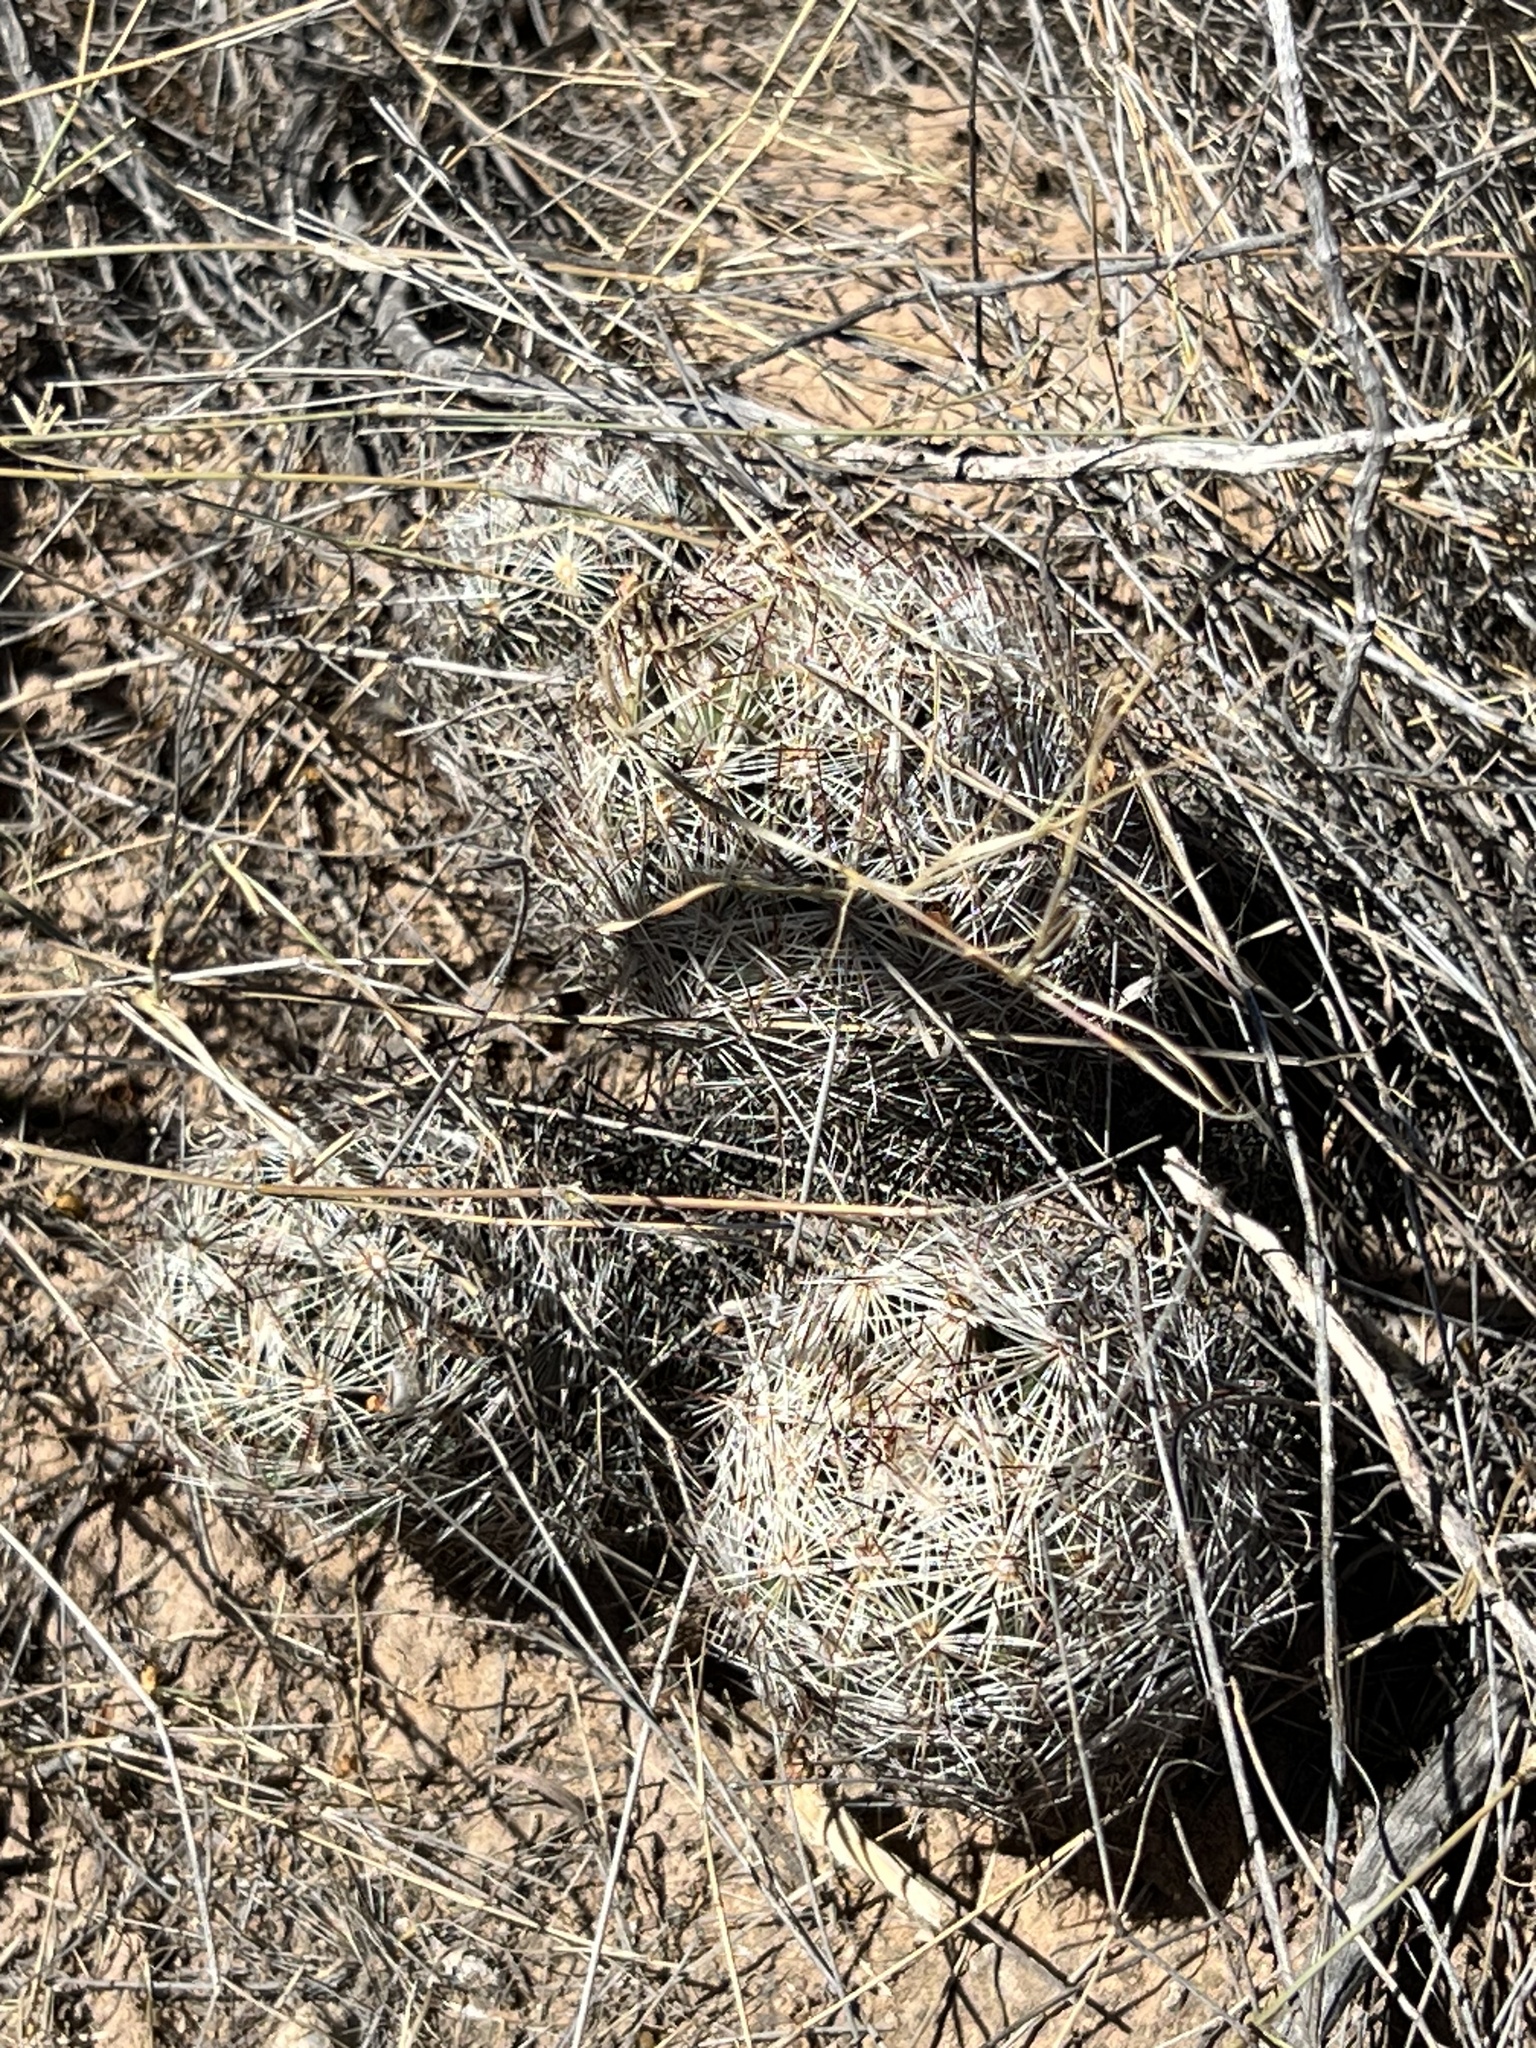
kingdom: Plantae
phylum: Tracheophyta
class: Magnoliopsida
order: Caryophyllales
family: Cactaceae
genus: Pelecyphora
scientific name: Pelecyphora vivipara
